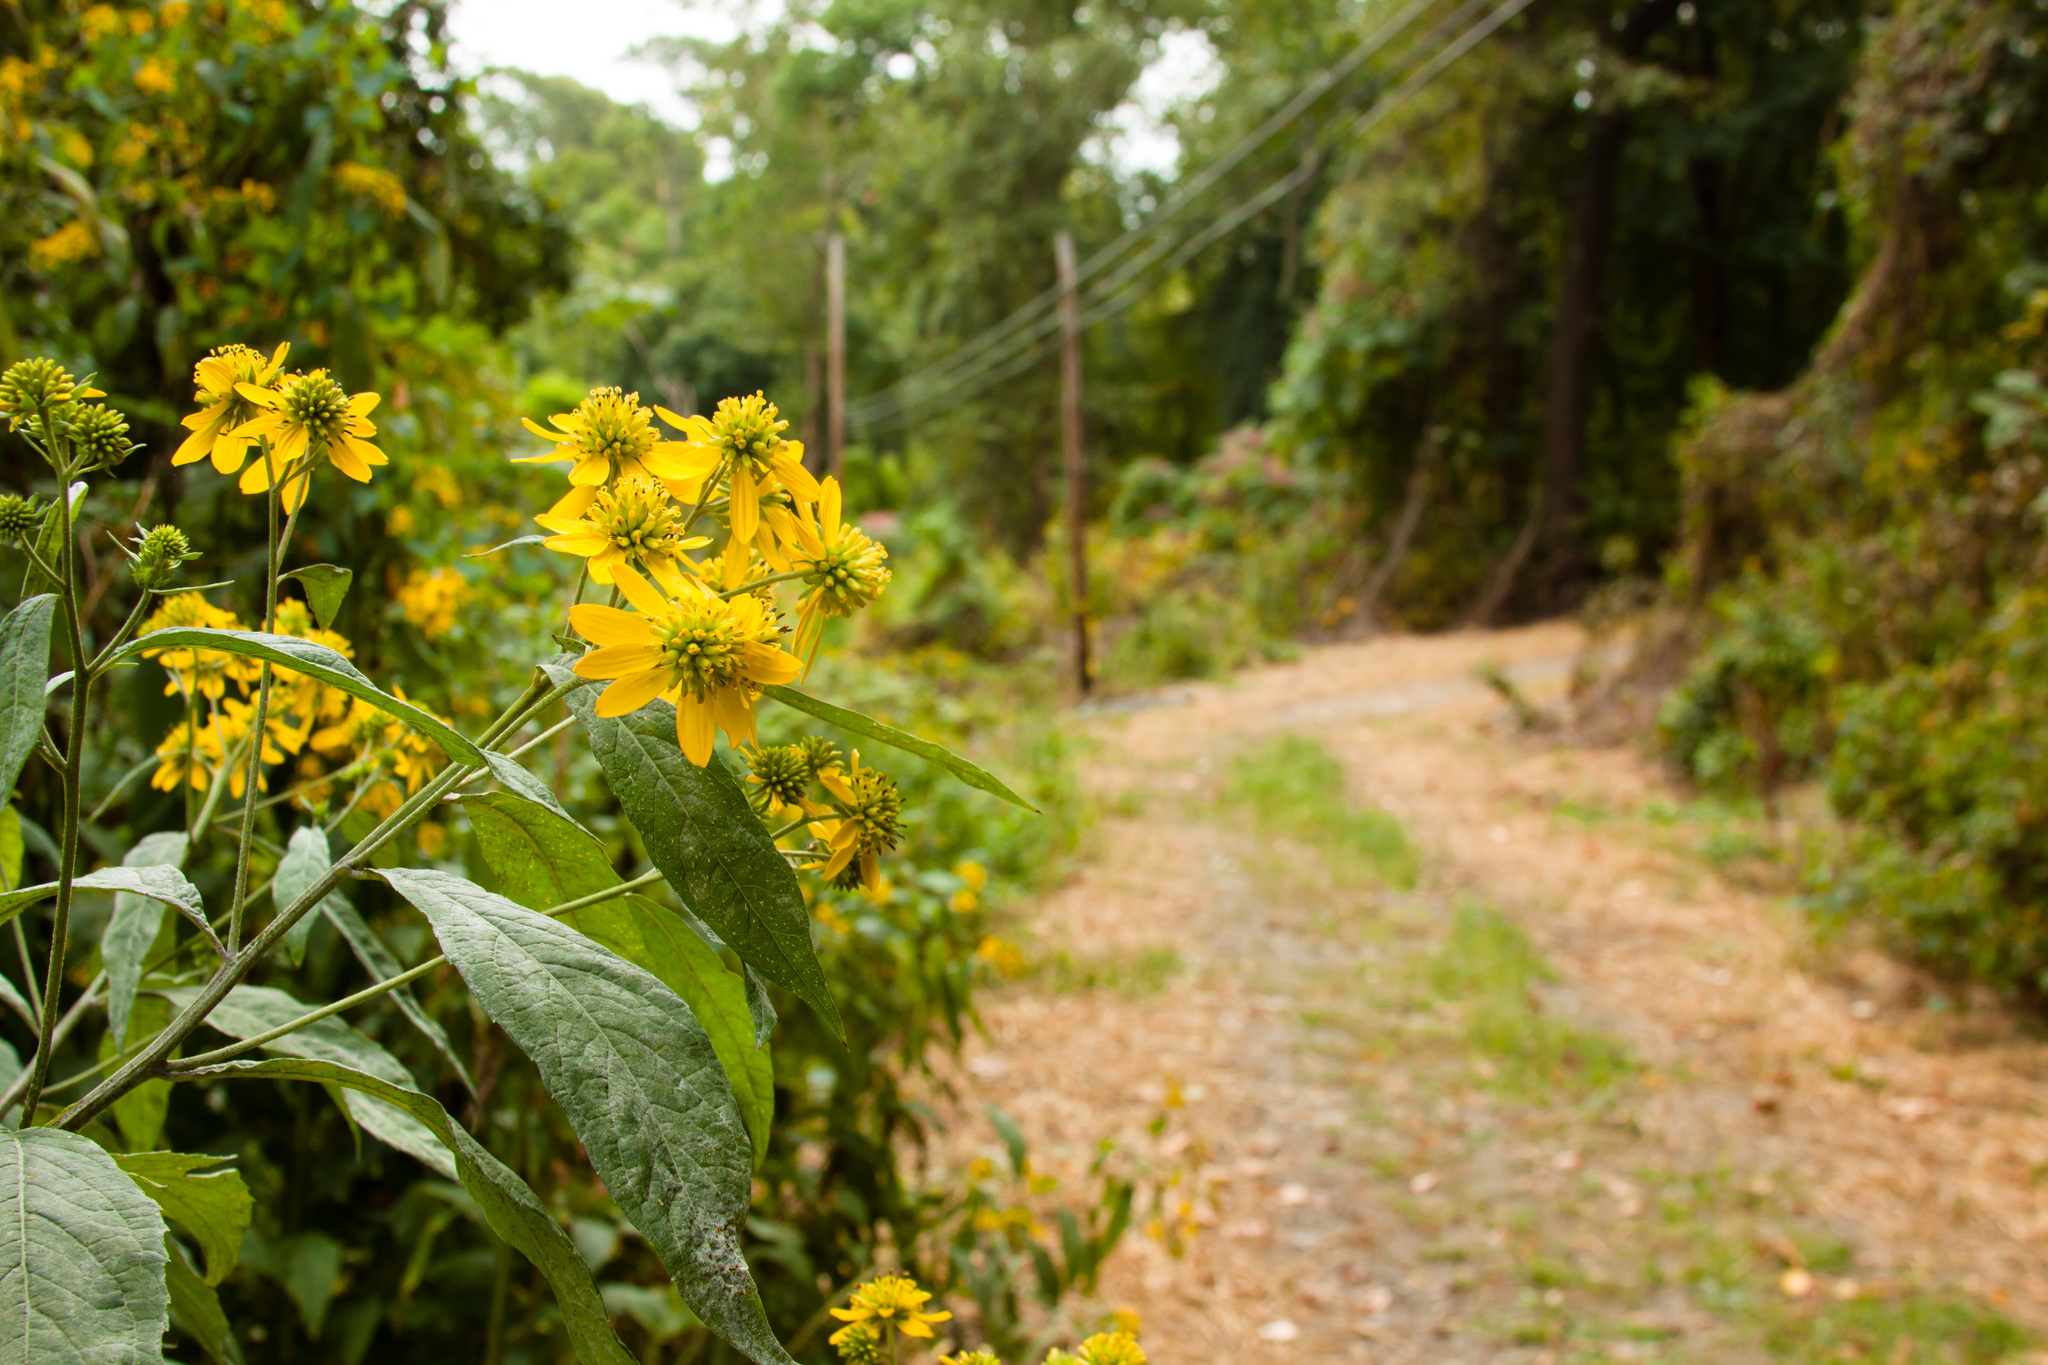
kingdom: Plantae
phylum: Tracheophyta
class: Magnoliopsida
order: Asterales
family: Asteraceae
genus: Verbesina
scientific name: Verbesina alternifolia
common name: Wingstem
